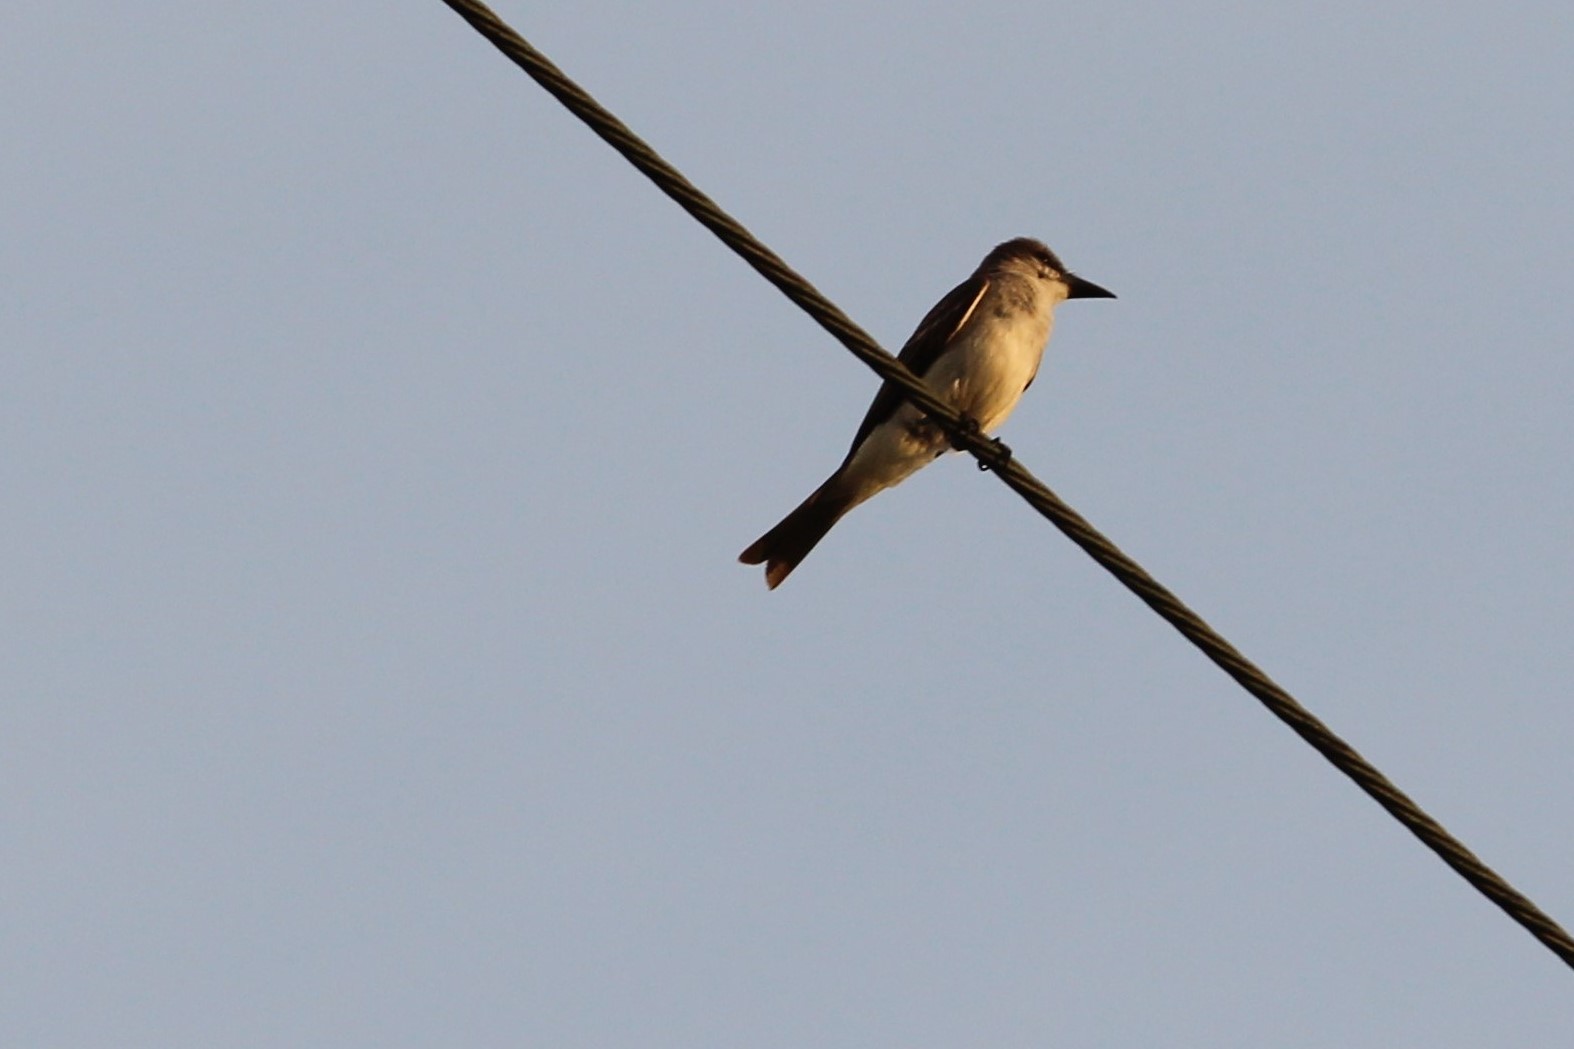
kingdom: Animalia
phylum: Chordata
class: Aves
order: Passeriformes
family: Tyrannidae
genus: Tyrannus
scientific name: Tyrannus dominicensis
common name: Gray kingbird
